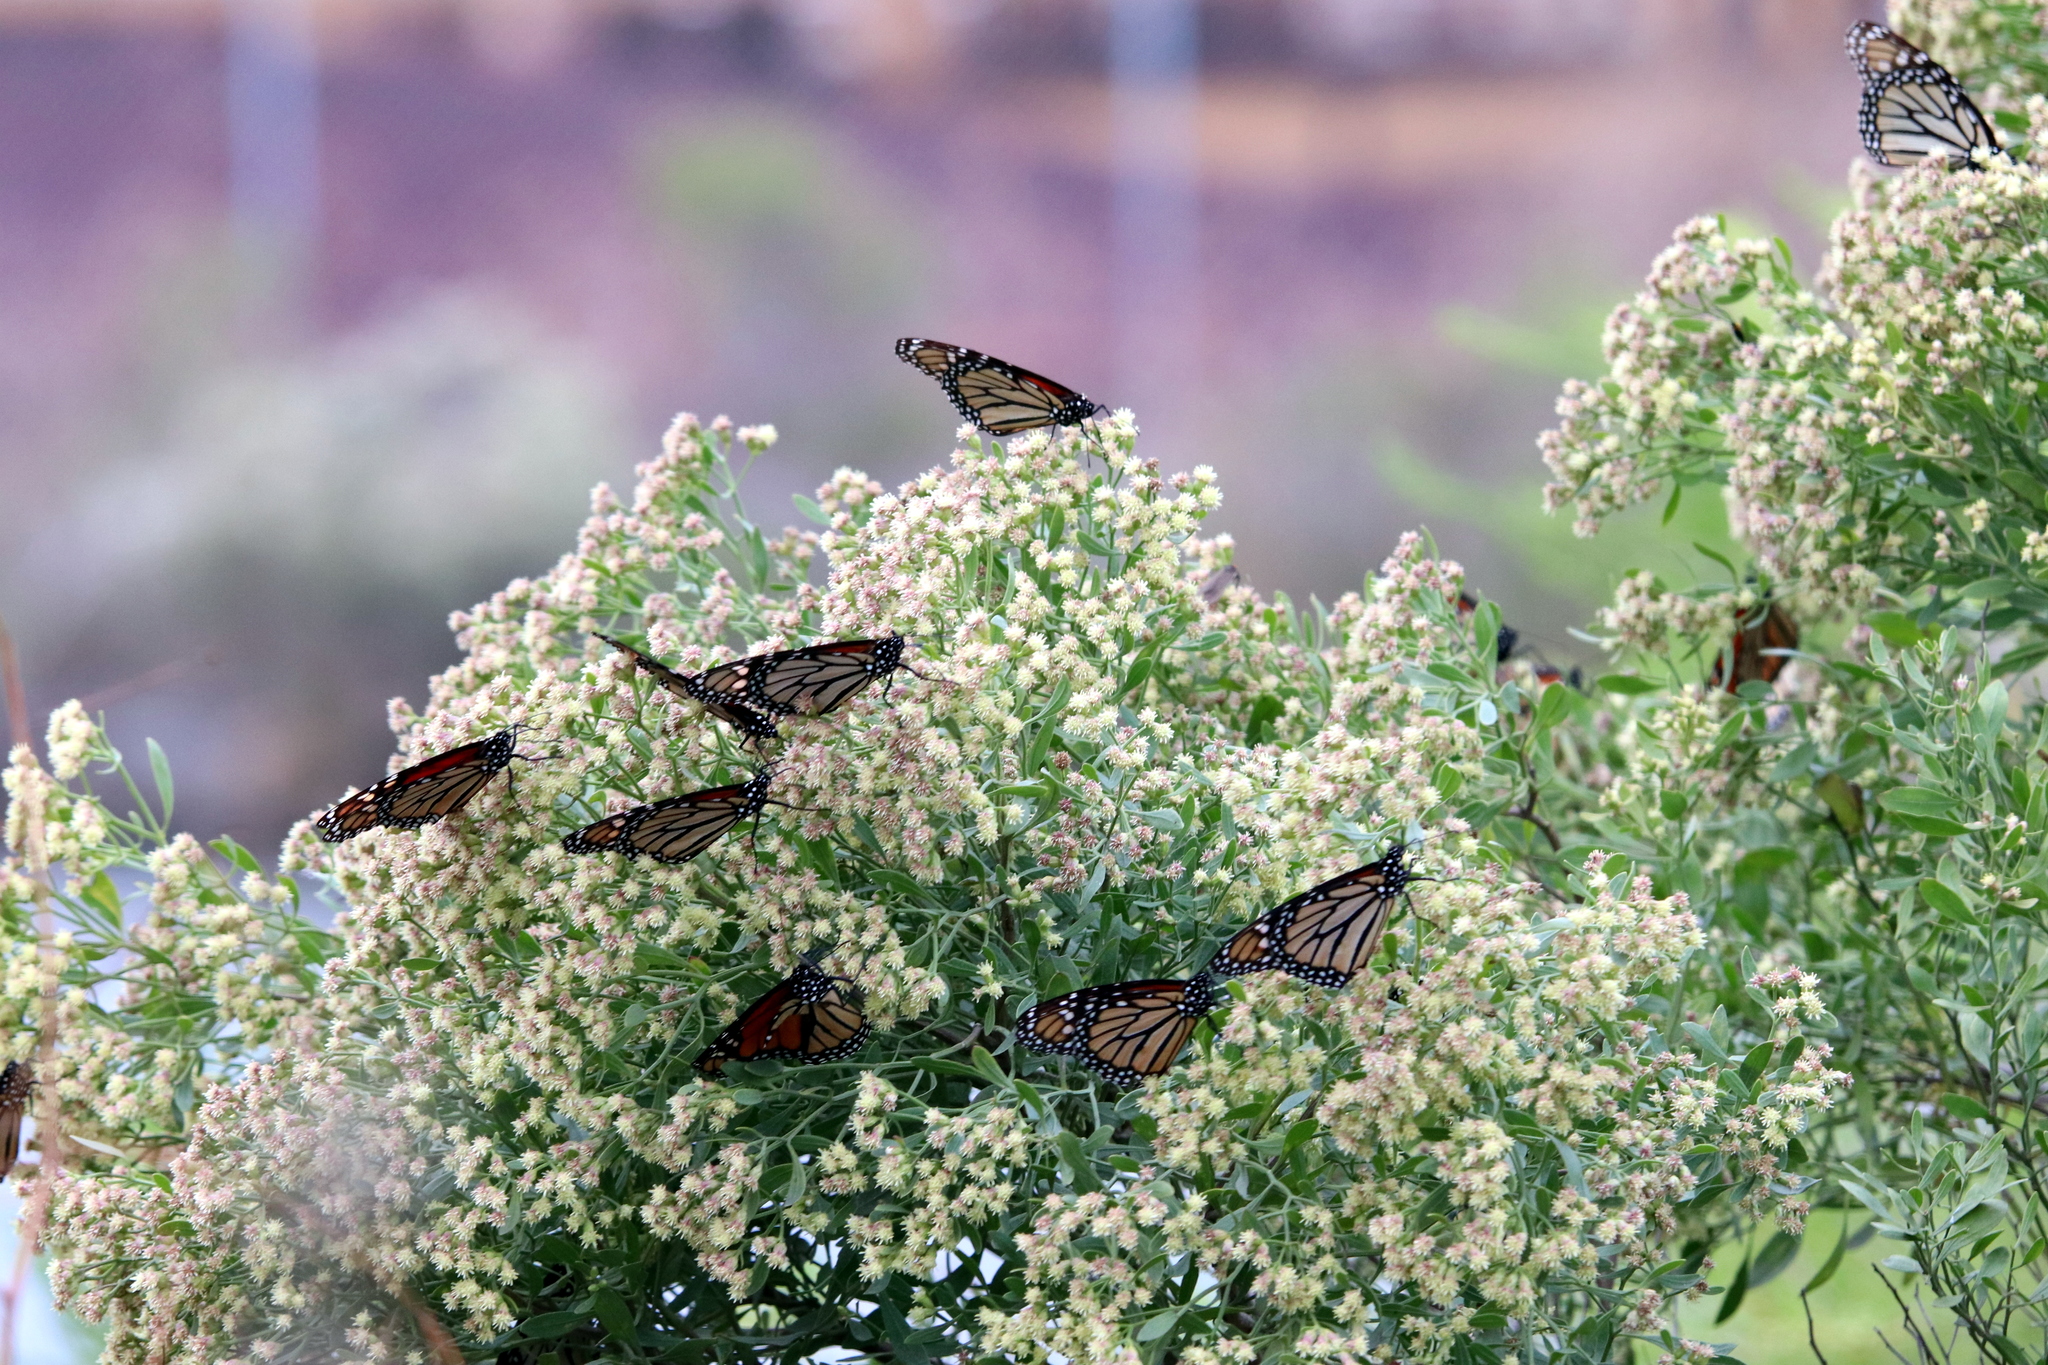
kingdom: Animalia
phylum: Arthropoda
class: Insecta
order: Lepidoptera
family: Nymphalidae
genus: Danaus
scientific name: Danaus plexippus
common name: Monarch
